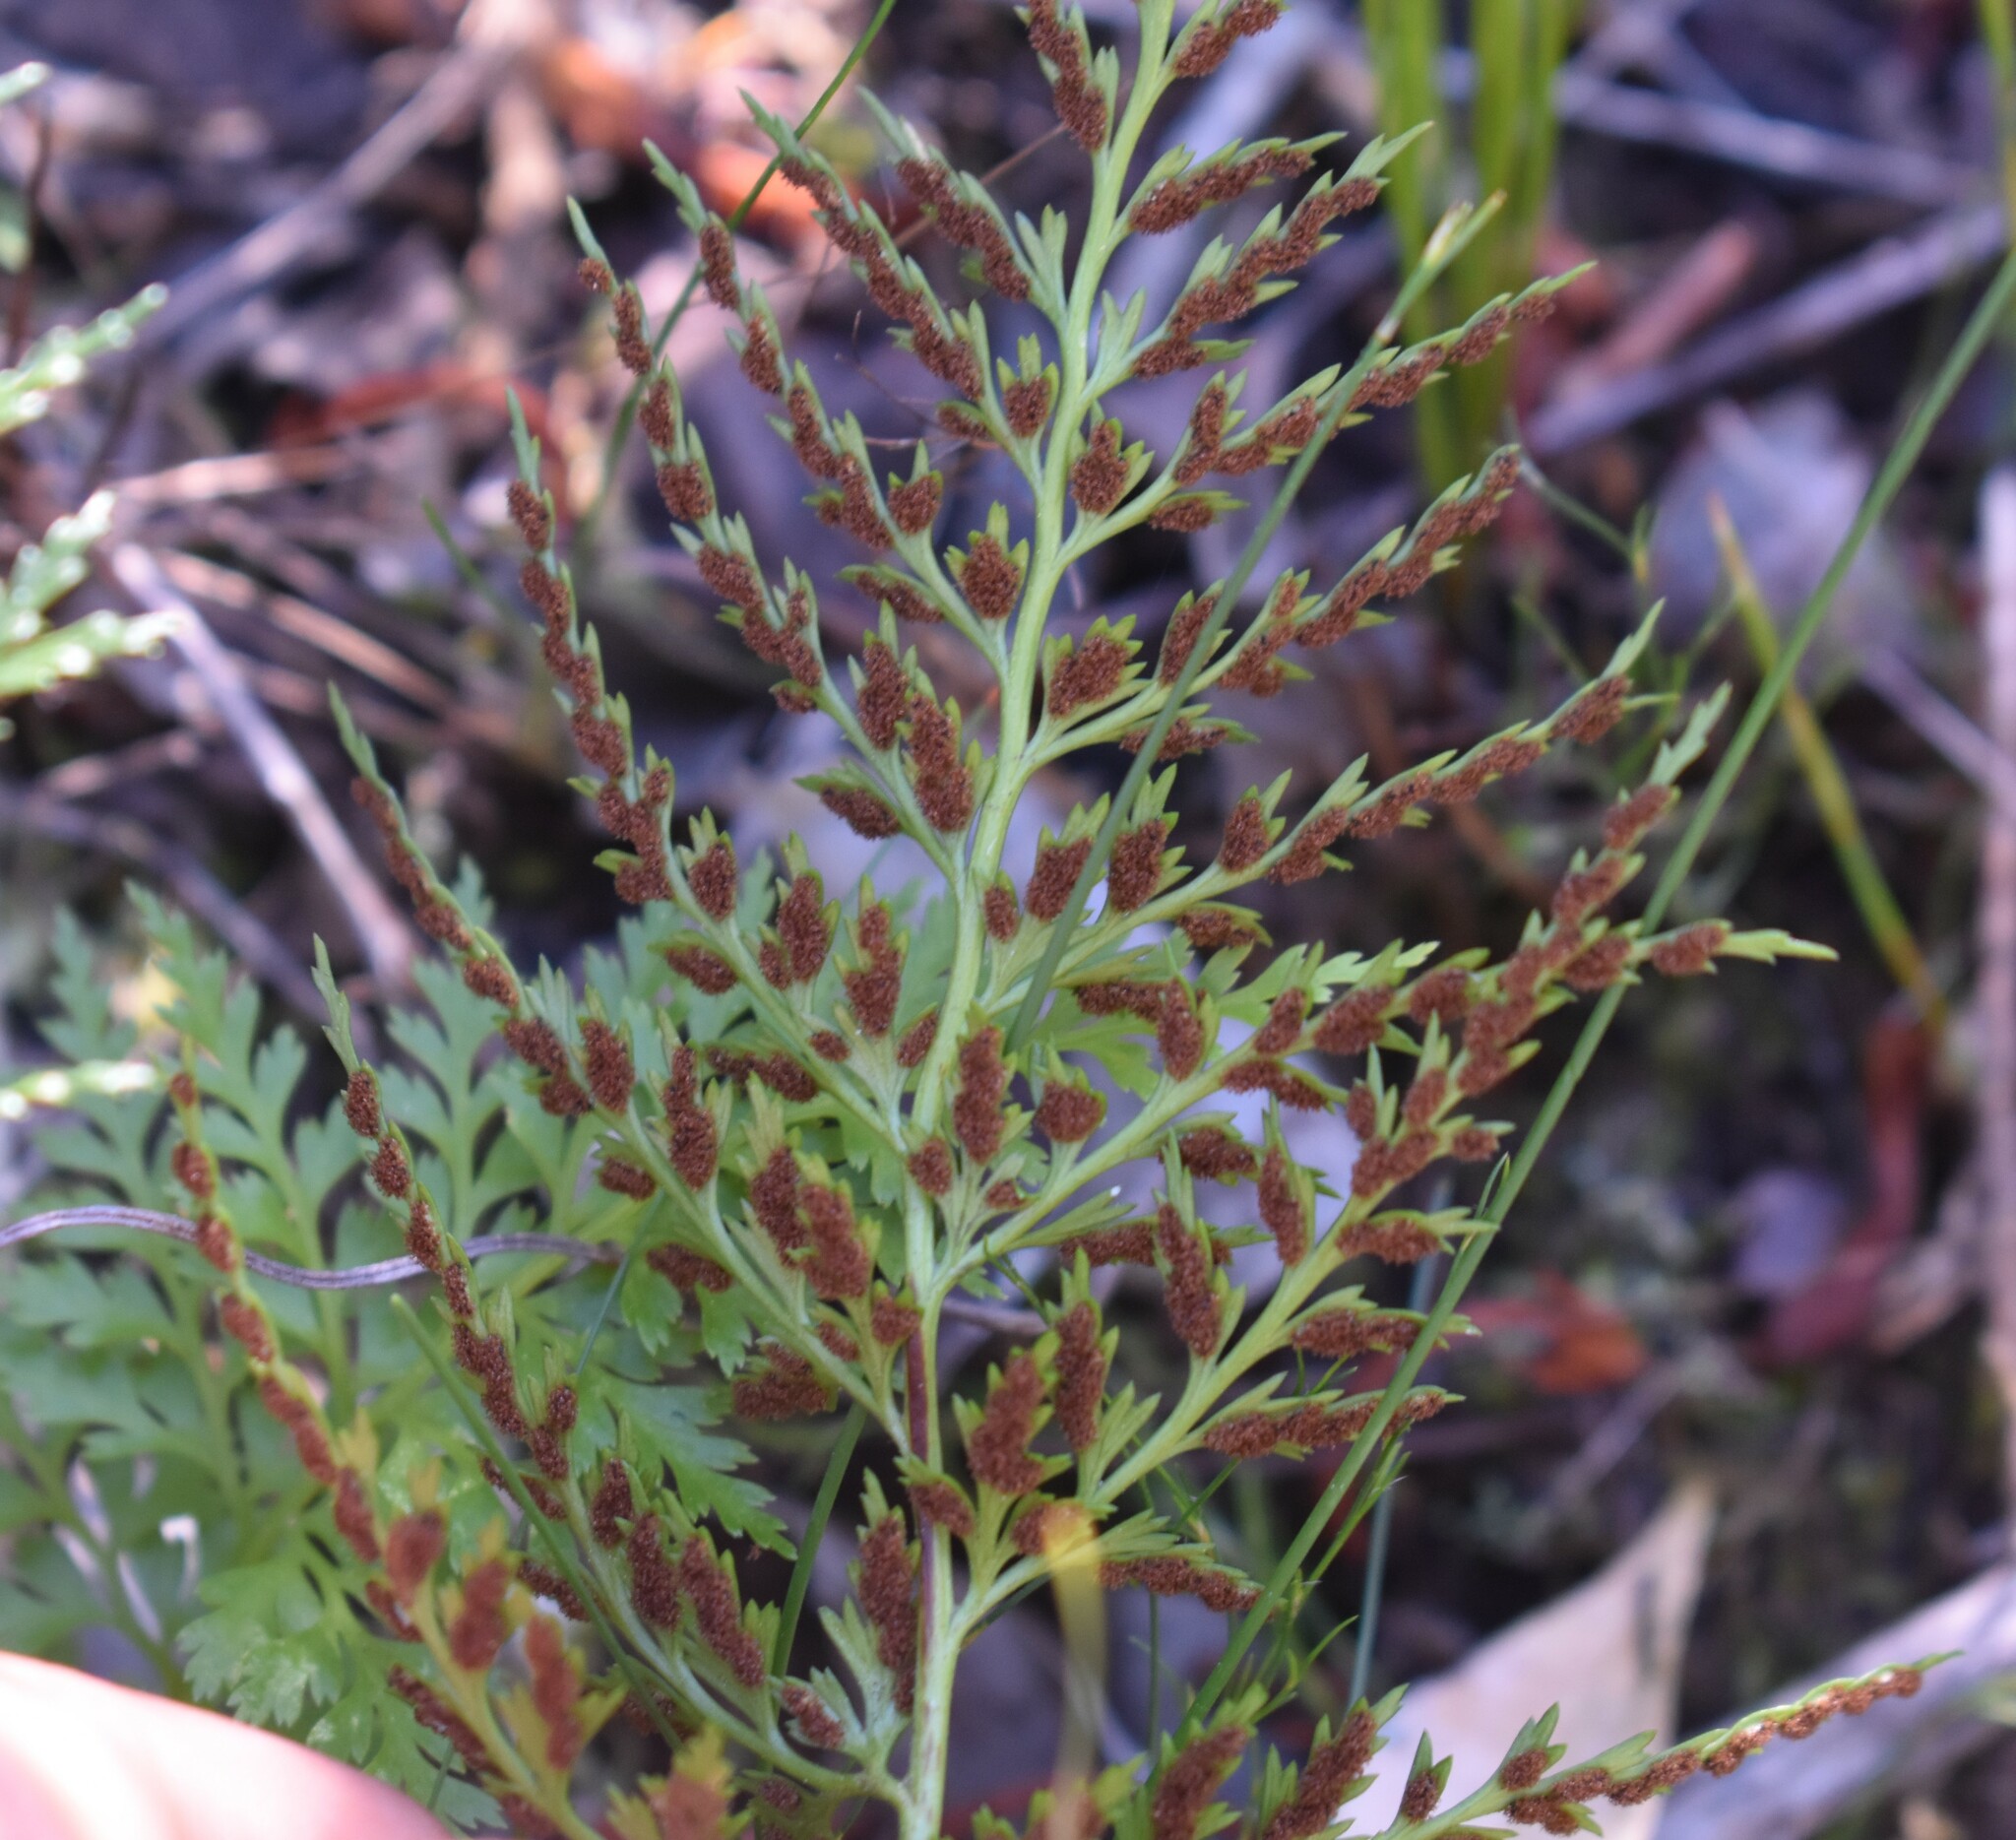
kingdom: Plantae
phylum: Tracheophyta
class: Polypodiopsida
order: Polypodiales
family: Aspleniaceae
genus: Asplenium
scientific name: Asplenium aethiopicum
